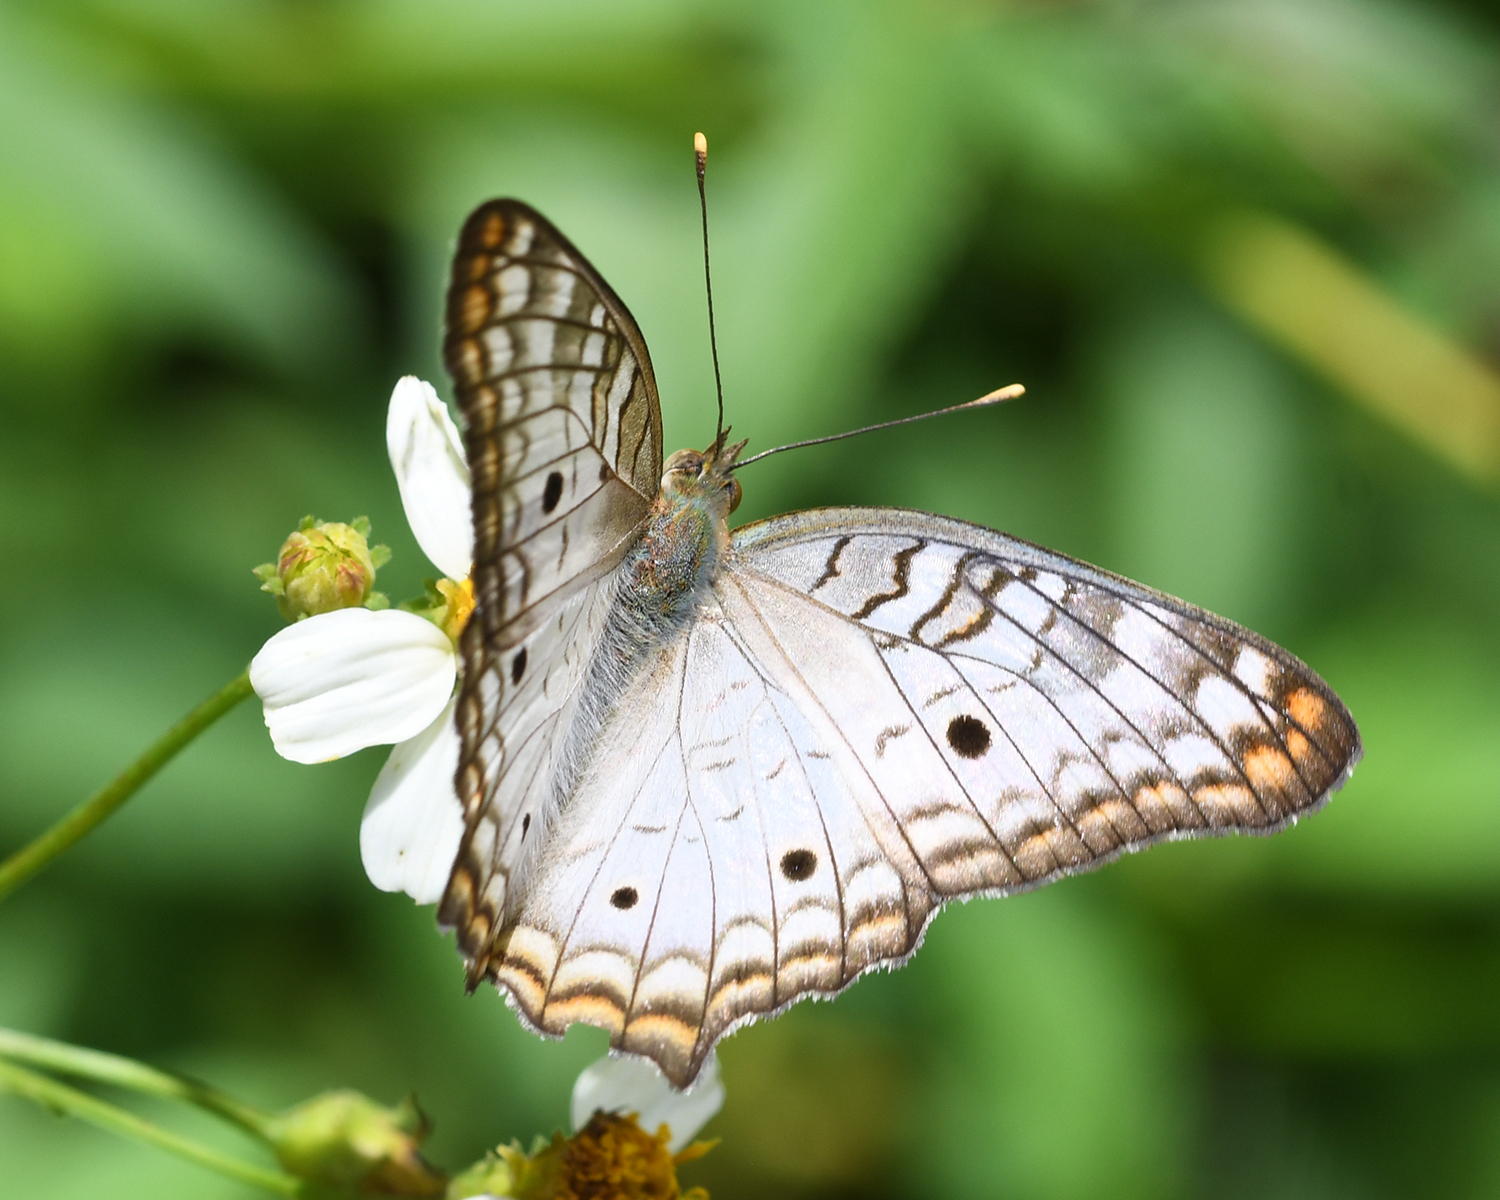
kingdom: Animalia
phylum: Arthropoda
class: Insecta
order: Lepidoptera
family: Nymphalidae
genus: Anartia
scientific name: Anartia jatrophae
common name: White peacock
